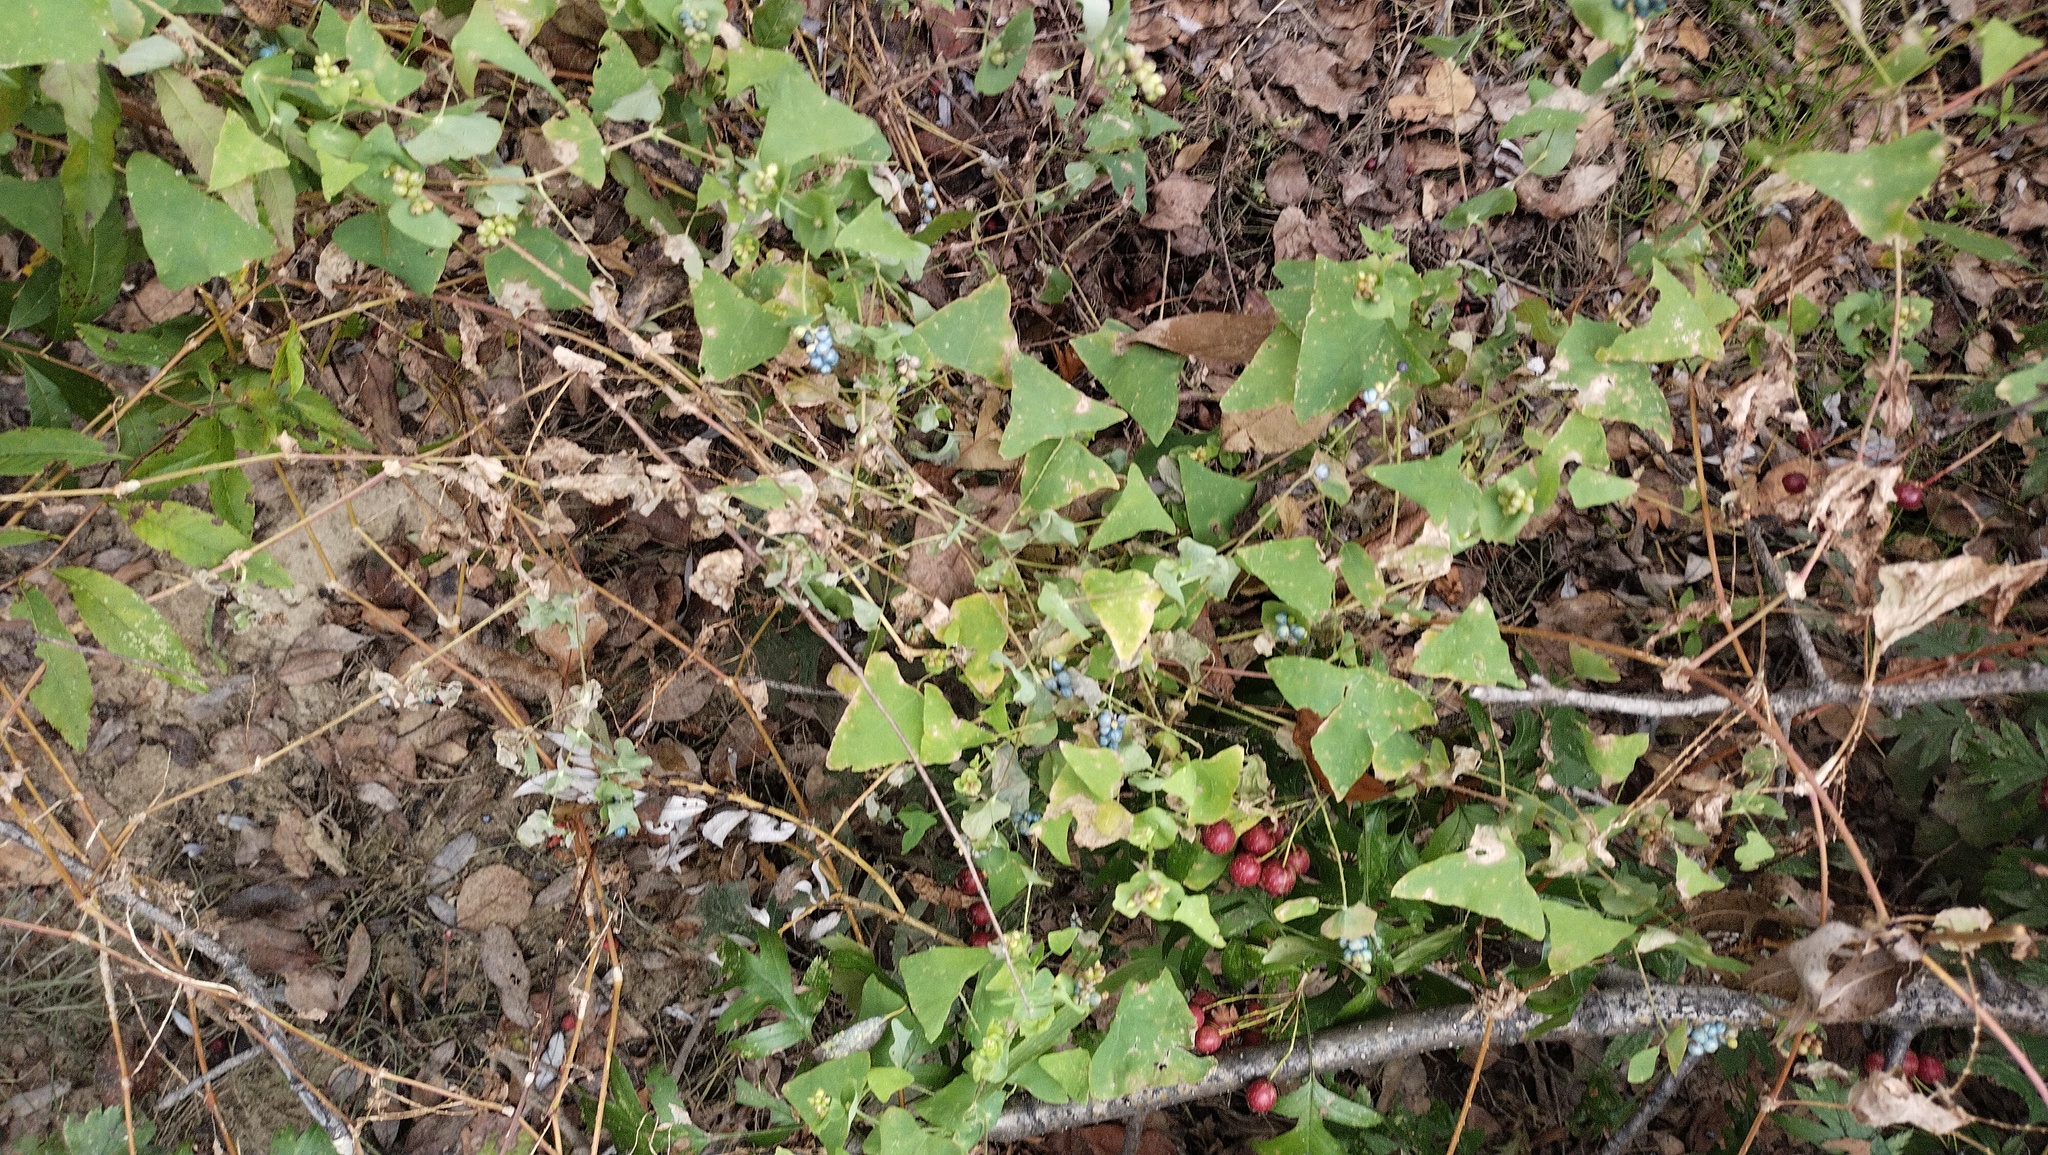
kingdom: Plantae
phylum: Tracheophyta
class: Magnoliopsida
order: Caryophyllales
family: Polygonaceae
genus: Persicaria
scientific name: Persicaria perfoliata
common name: Asiatic tearthumb
